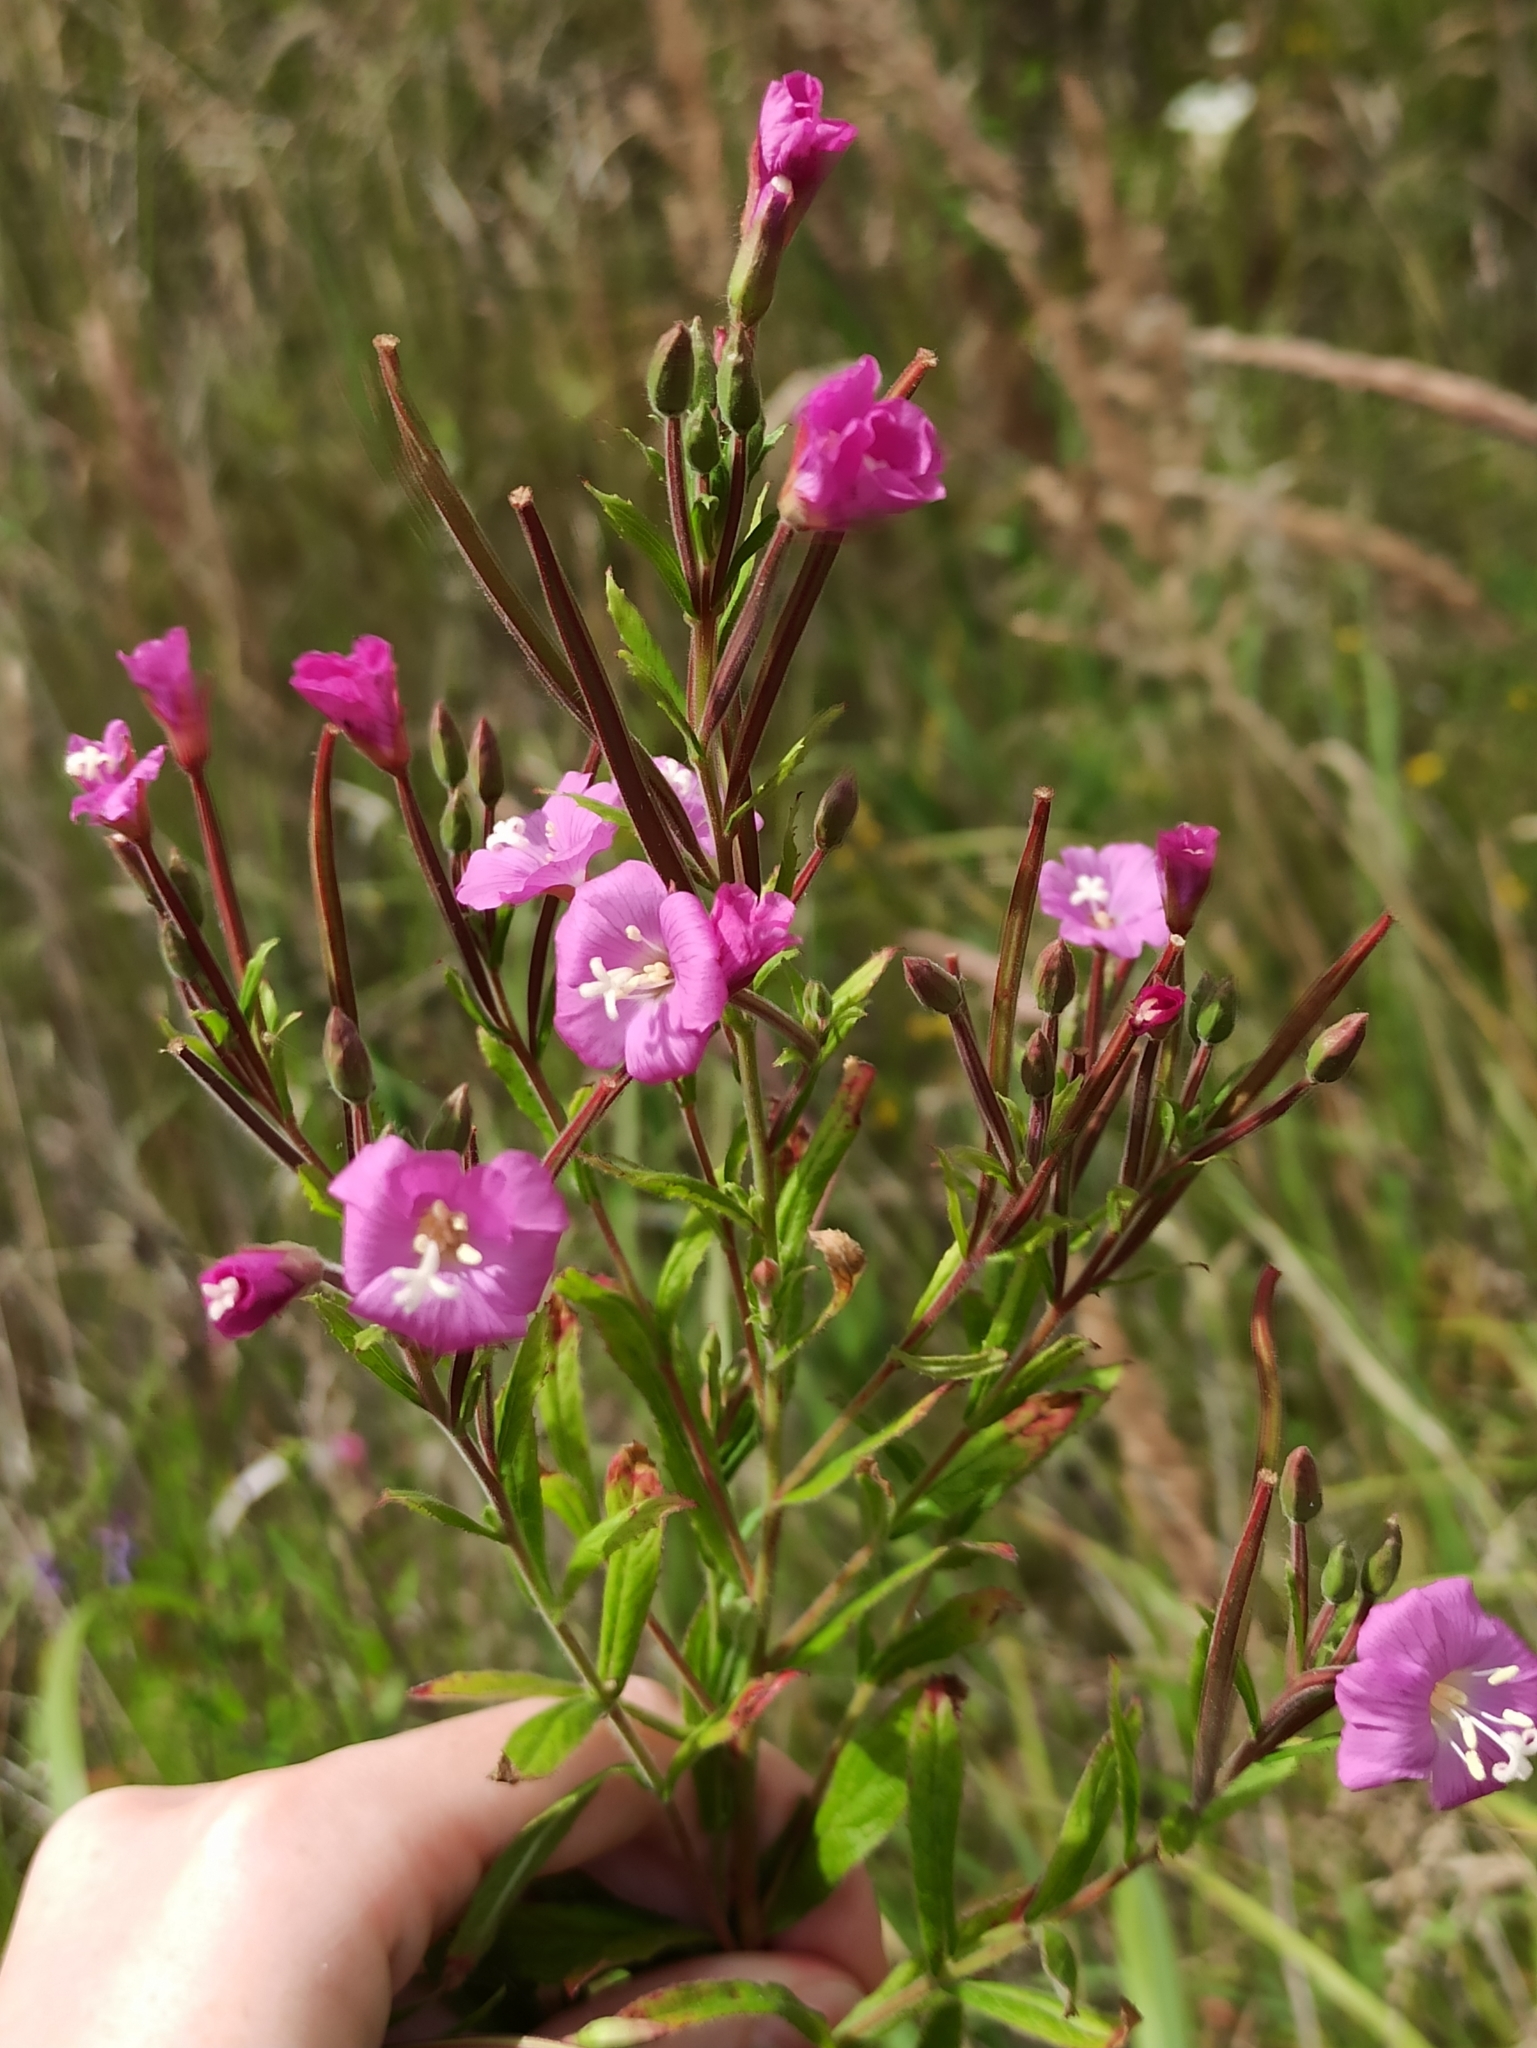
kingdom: Plantae
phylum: Tracheophyta
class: Magnoliopsida
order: Myrtales
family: Onagraceae
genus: Epilobium
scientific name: Epilobium hirsutum
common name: Great willowherb
